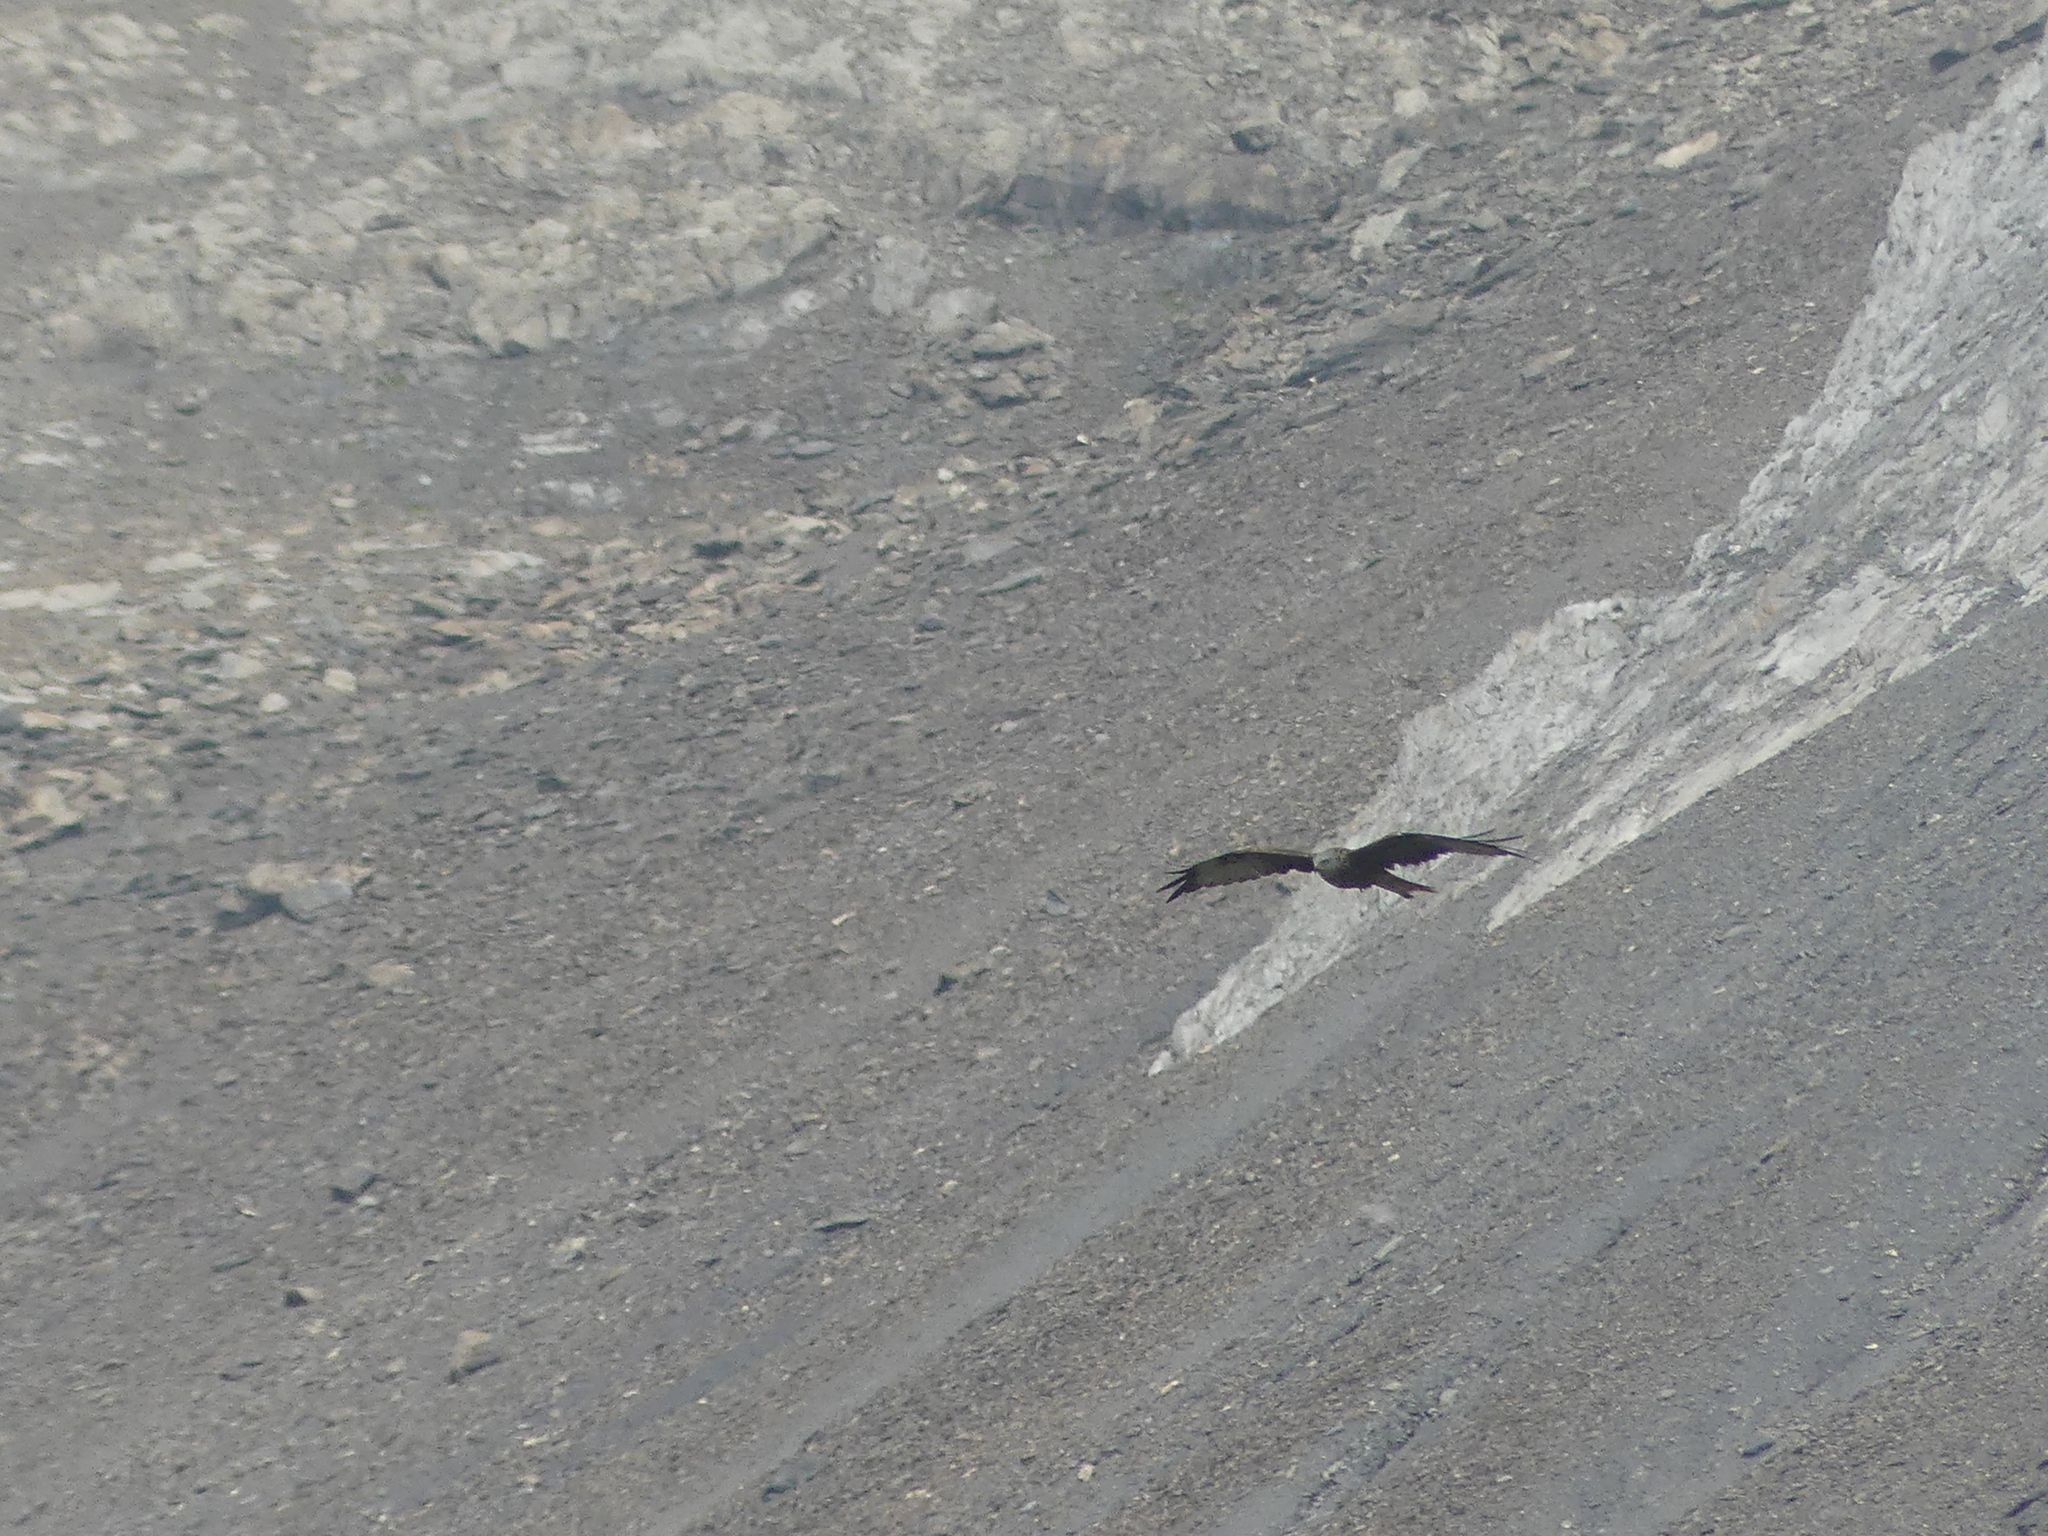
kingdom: Animalia
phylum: Chordata
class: Aves
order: Accipitriformes
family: Accipitridae
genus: Milvus
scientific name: Milvus milvus
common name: Red kite
